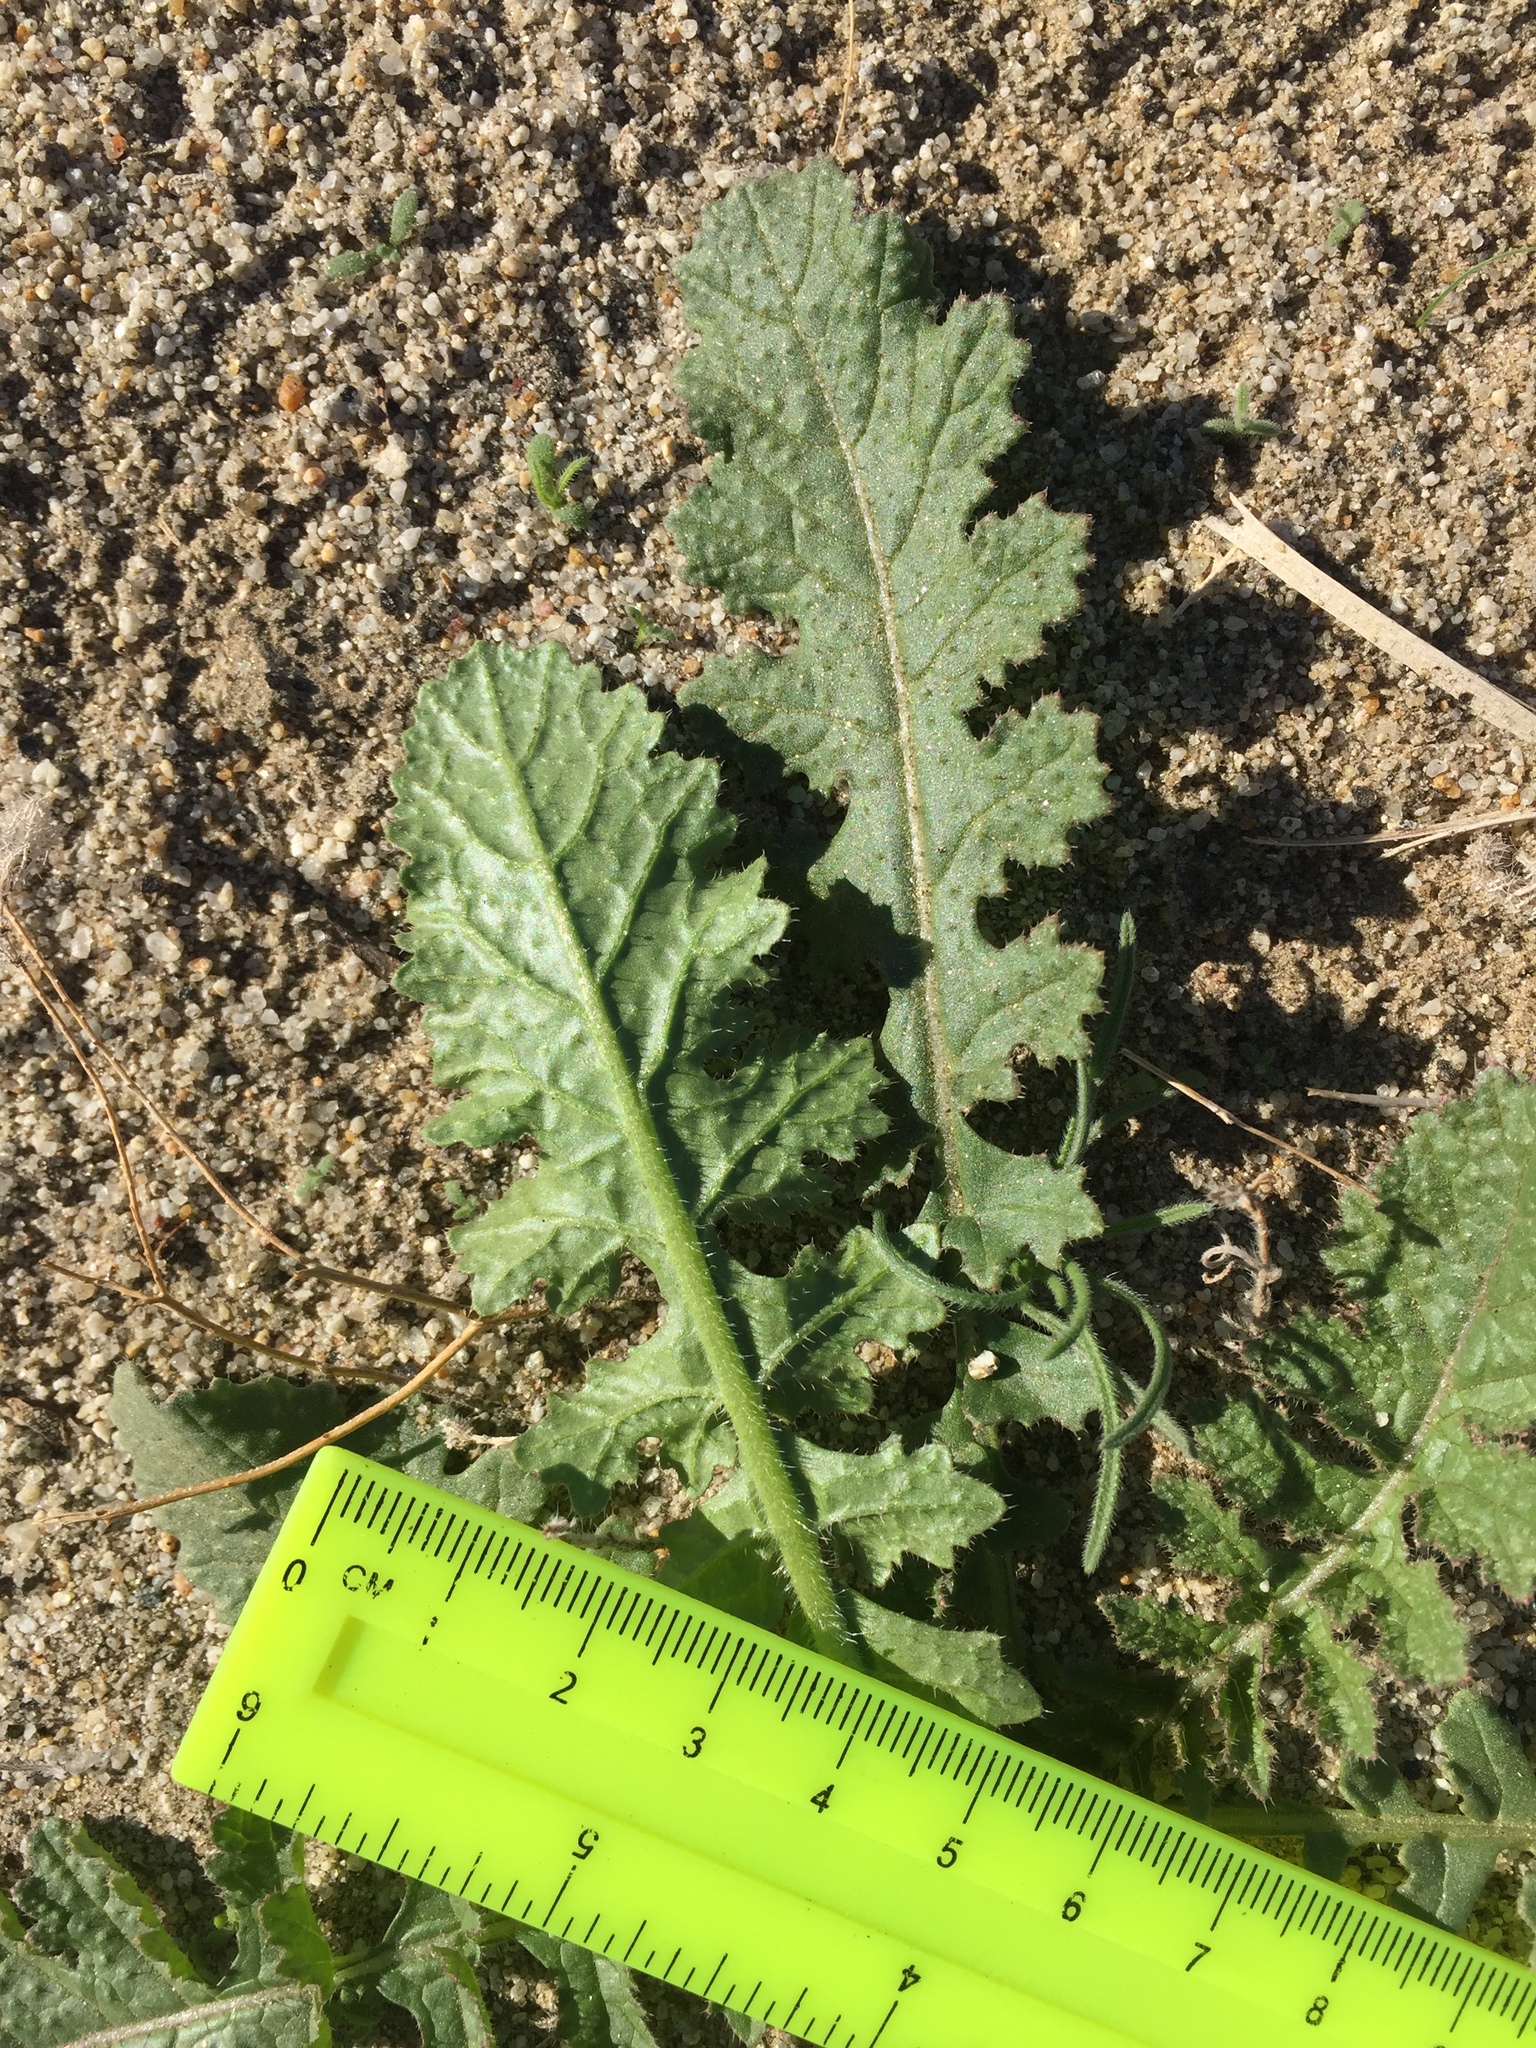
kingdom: Plantae
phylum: Tracheophyta
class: Magnoliopsida
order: Brassicales
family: Brassicaceae
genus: Brassica
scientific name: Brassica tournefortii
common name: Pale cabbage
